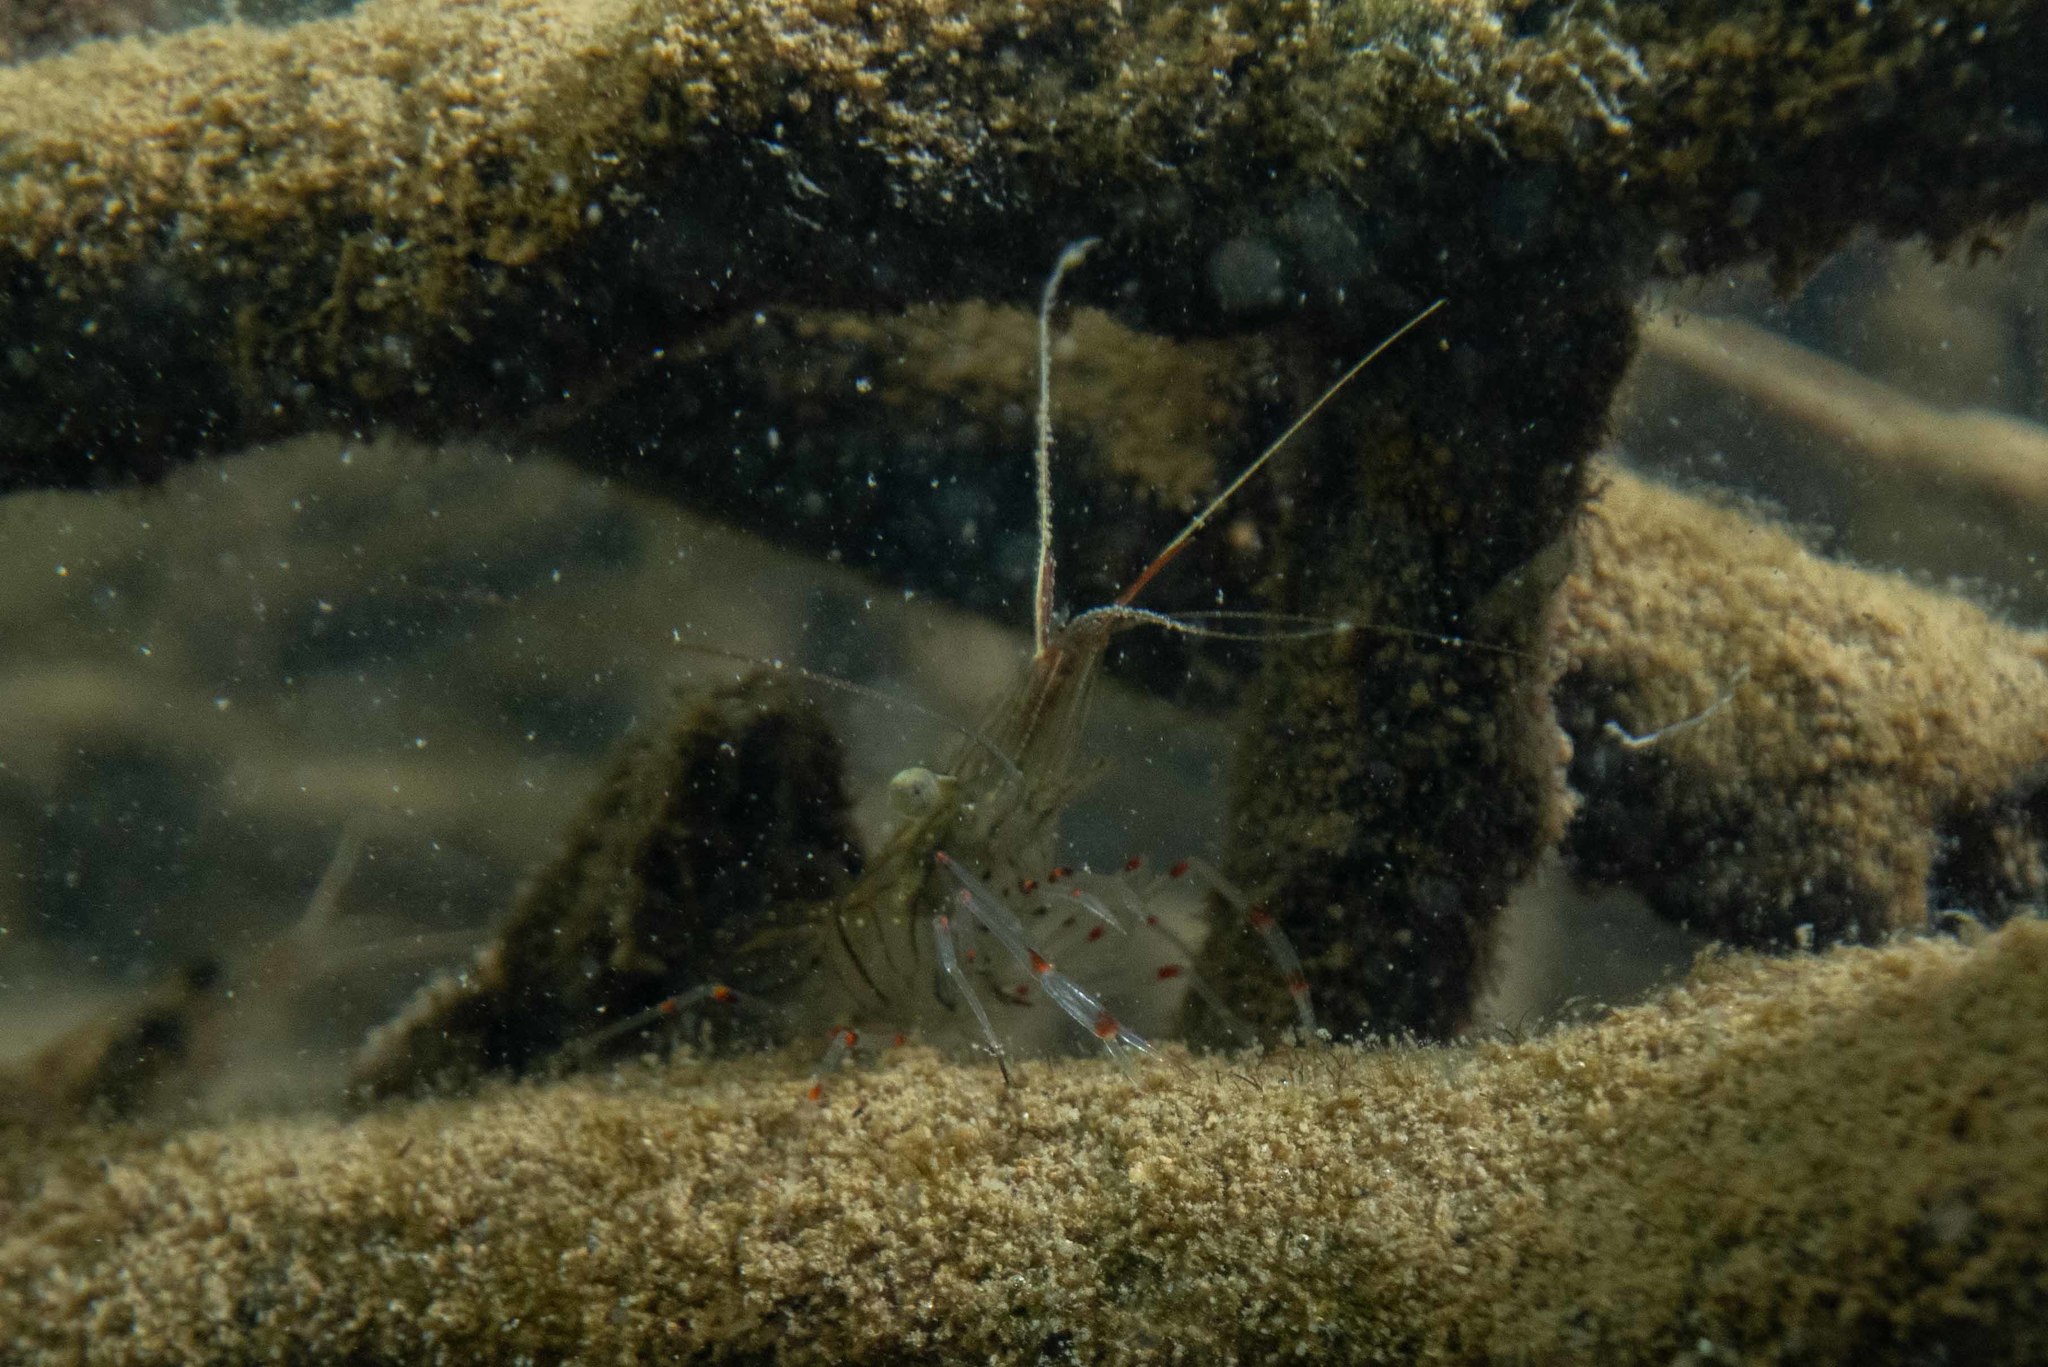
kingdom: Animalia
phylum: Arthropoda
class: Malacostraca
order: Decapoda
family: Palaemonidae
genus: Palaemon
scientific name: Palaemon affinis
